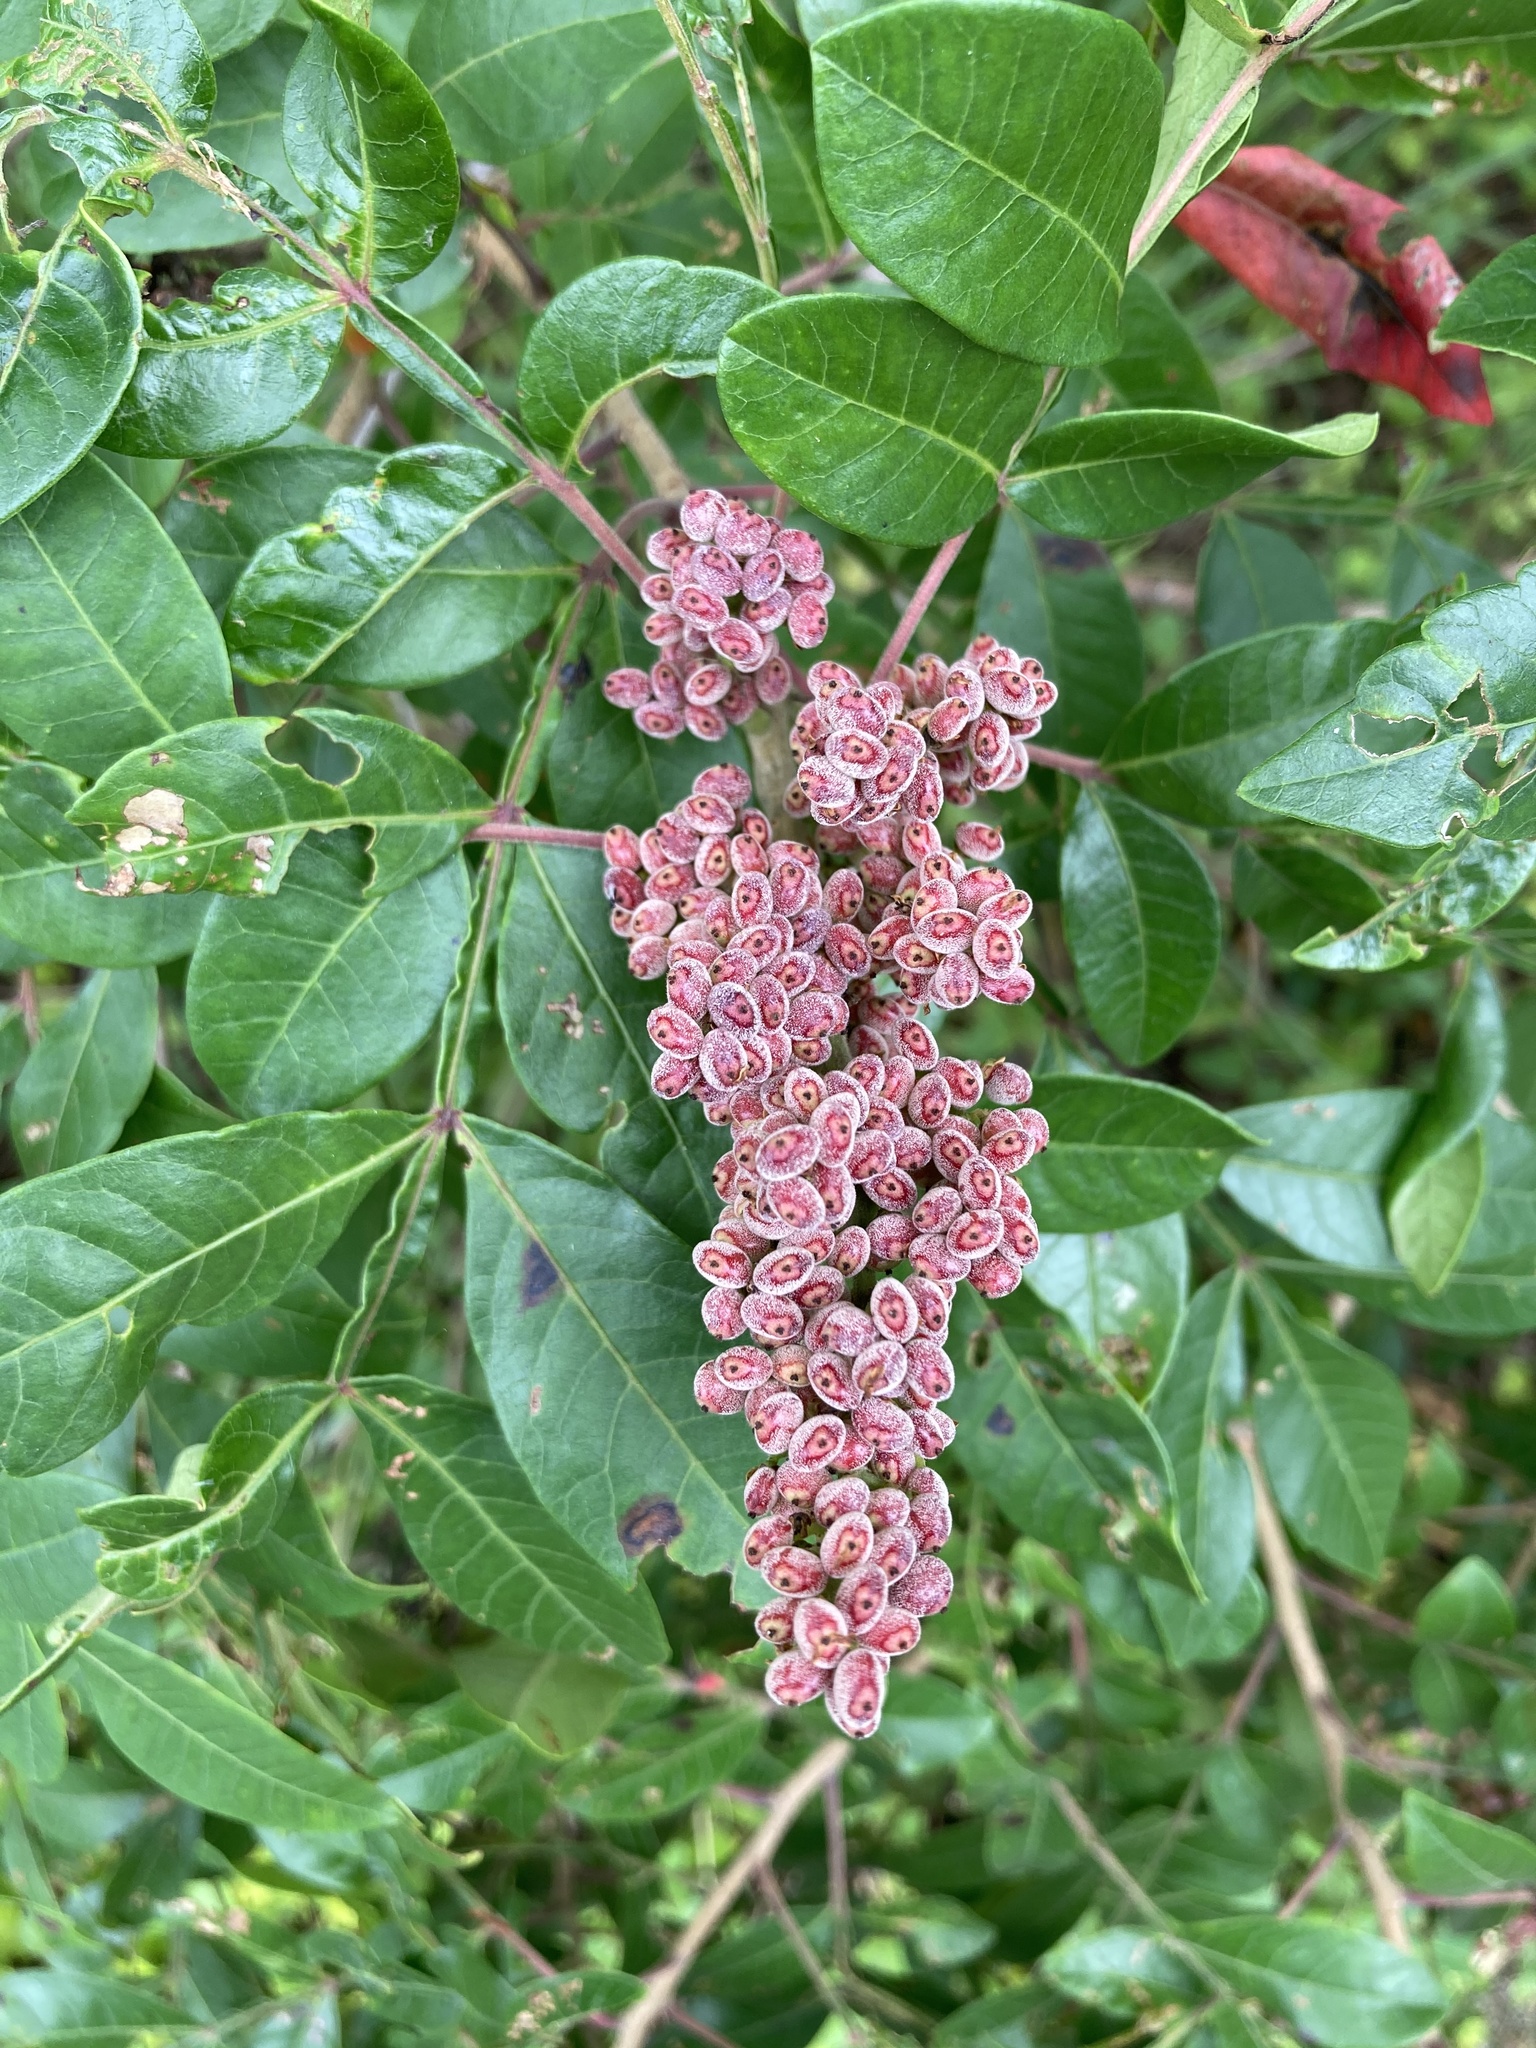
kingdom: Plantae
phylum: Tracheophyta
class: Magnoliopsida
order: Sapindales
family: Anacardiaceae
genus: Rhus
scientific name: Rhus copallina
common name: Shining sumac
